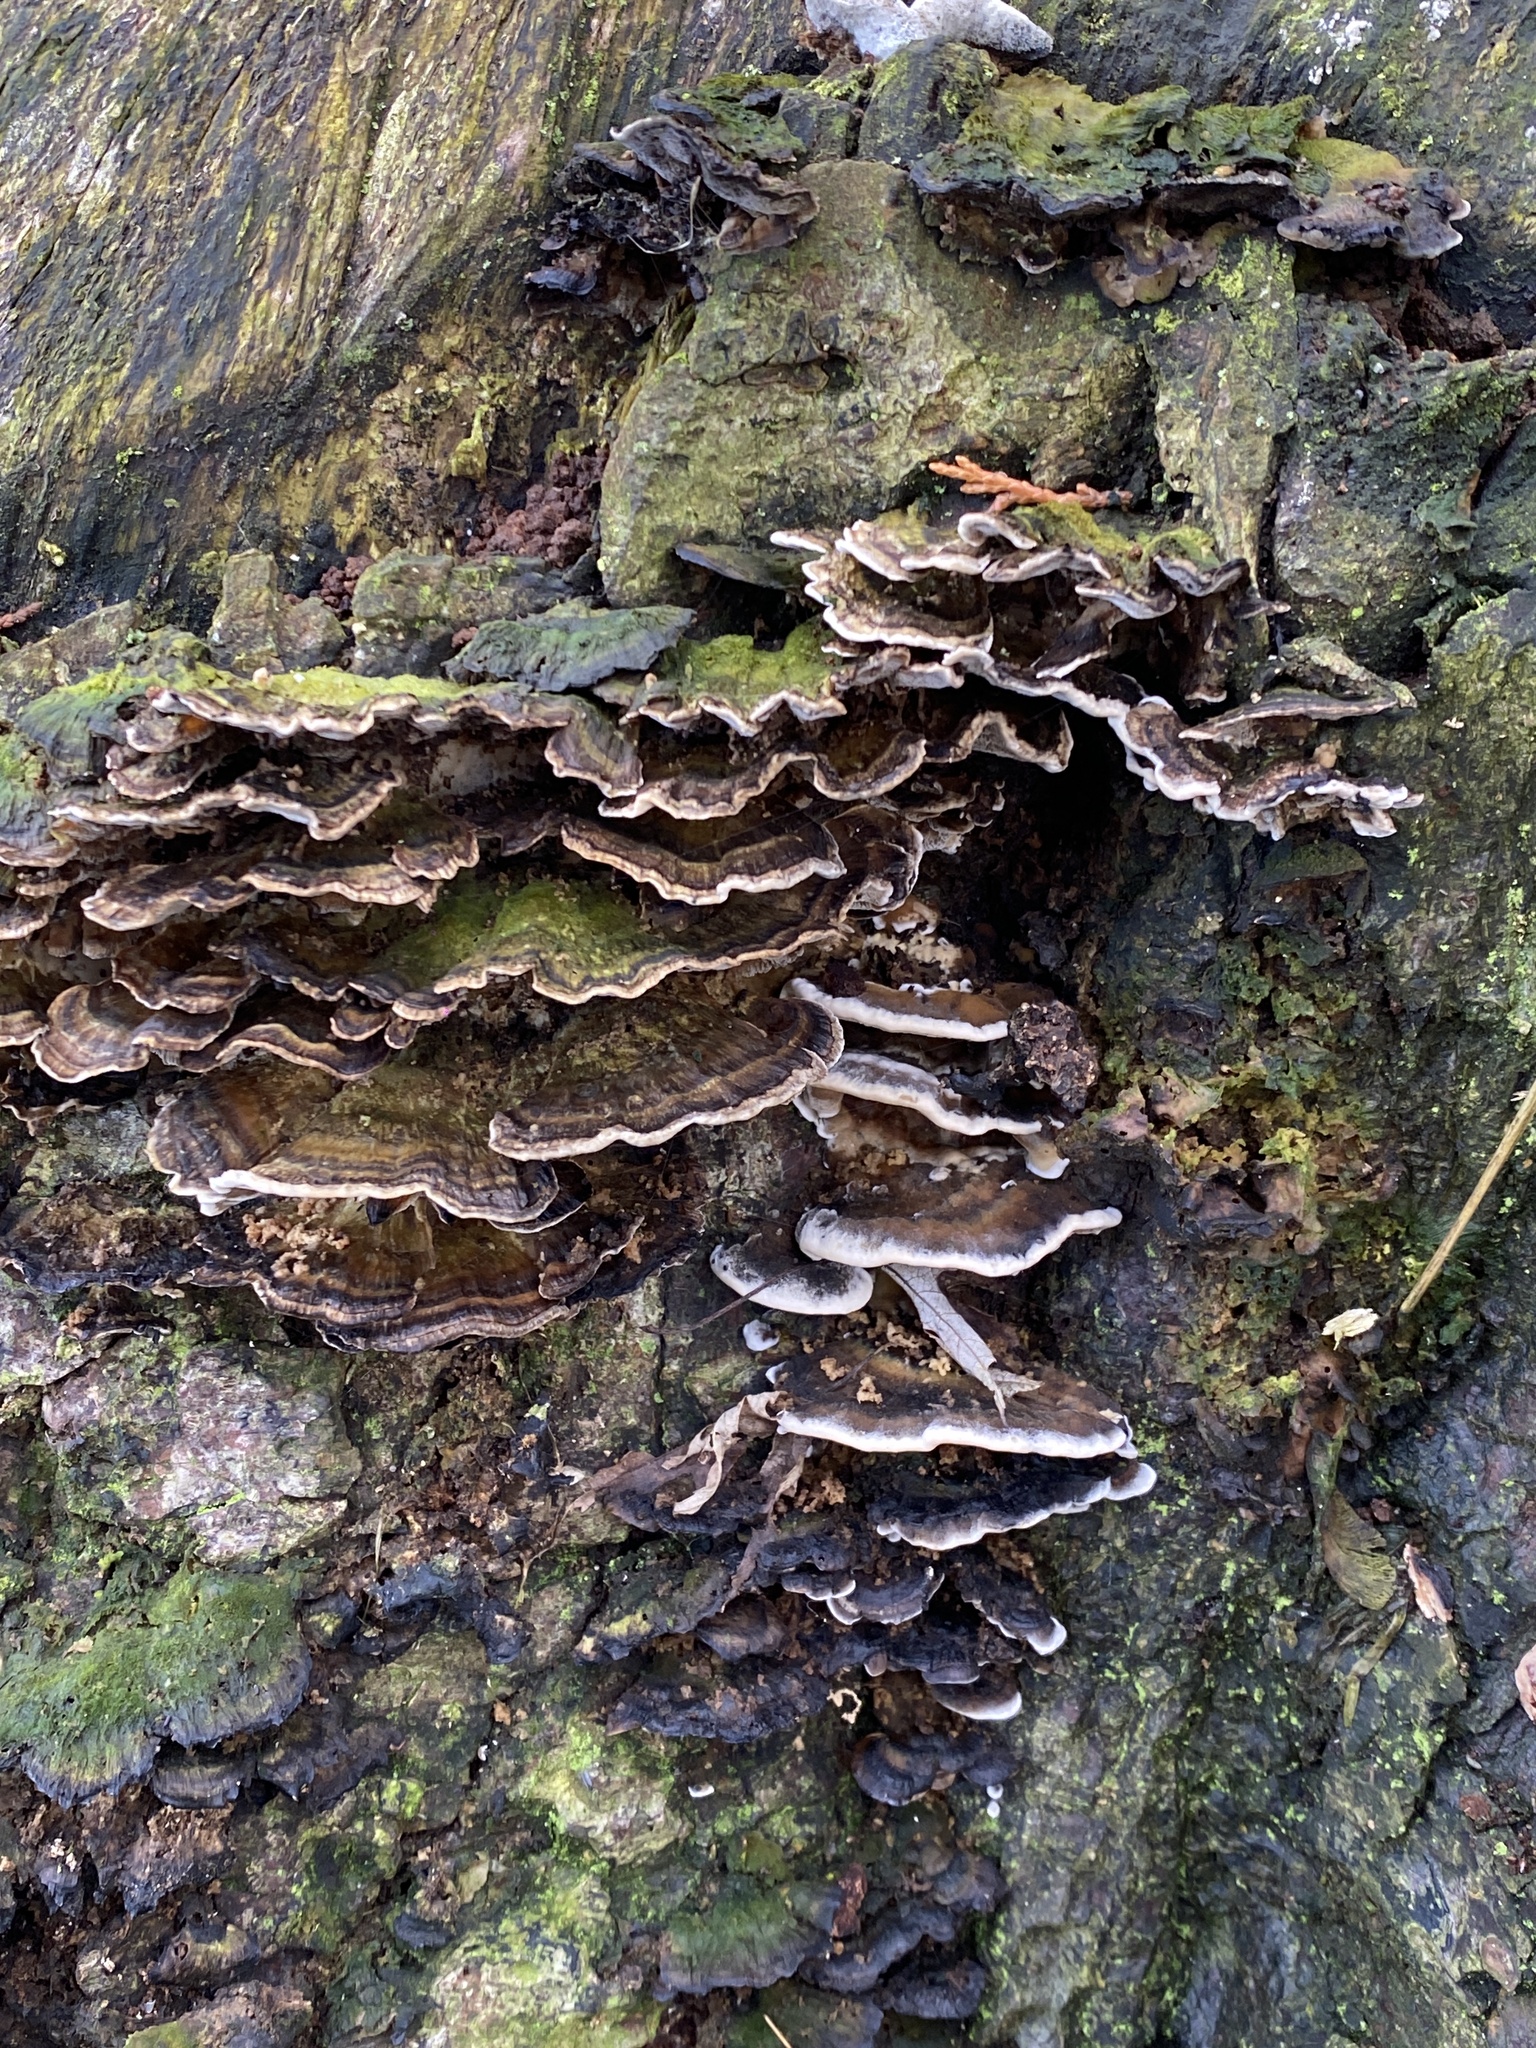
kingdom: Fungi
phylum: Basidiomycota
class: Agaricomycetes
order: Polyporales
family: Phanerochaetaceae
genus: Bjerkandera
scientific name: Bjerkandera adusta
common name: Smoky bracket
